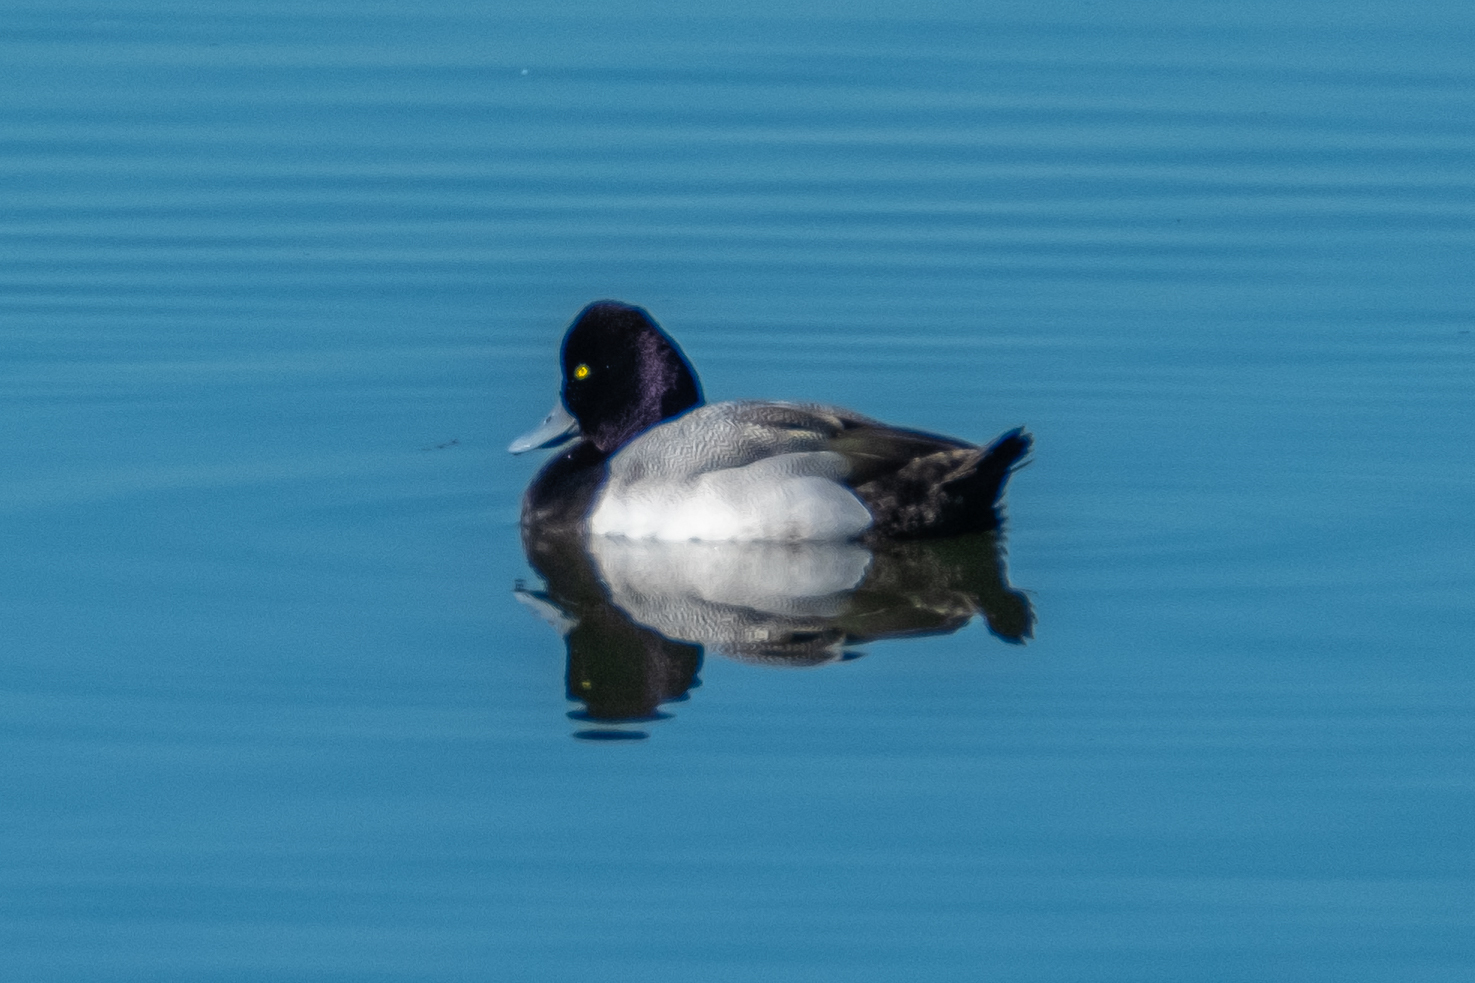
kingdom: Animalia
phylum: Chordata
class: Aves
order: Anseriformes
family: Anatidae
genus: Aythya
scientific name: Aythya affinis
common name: Lesser scaup
